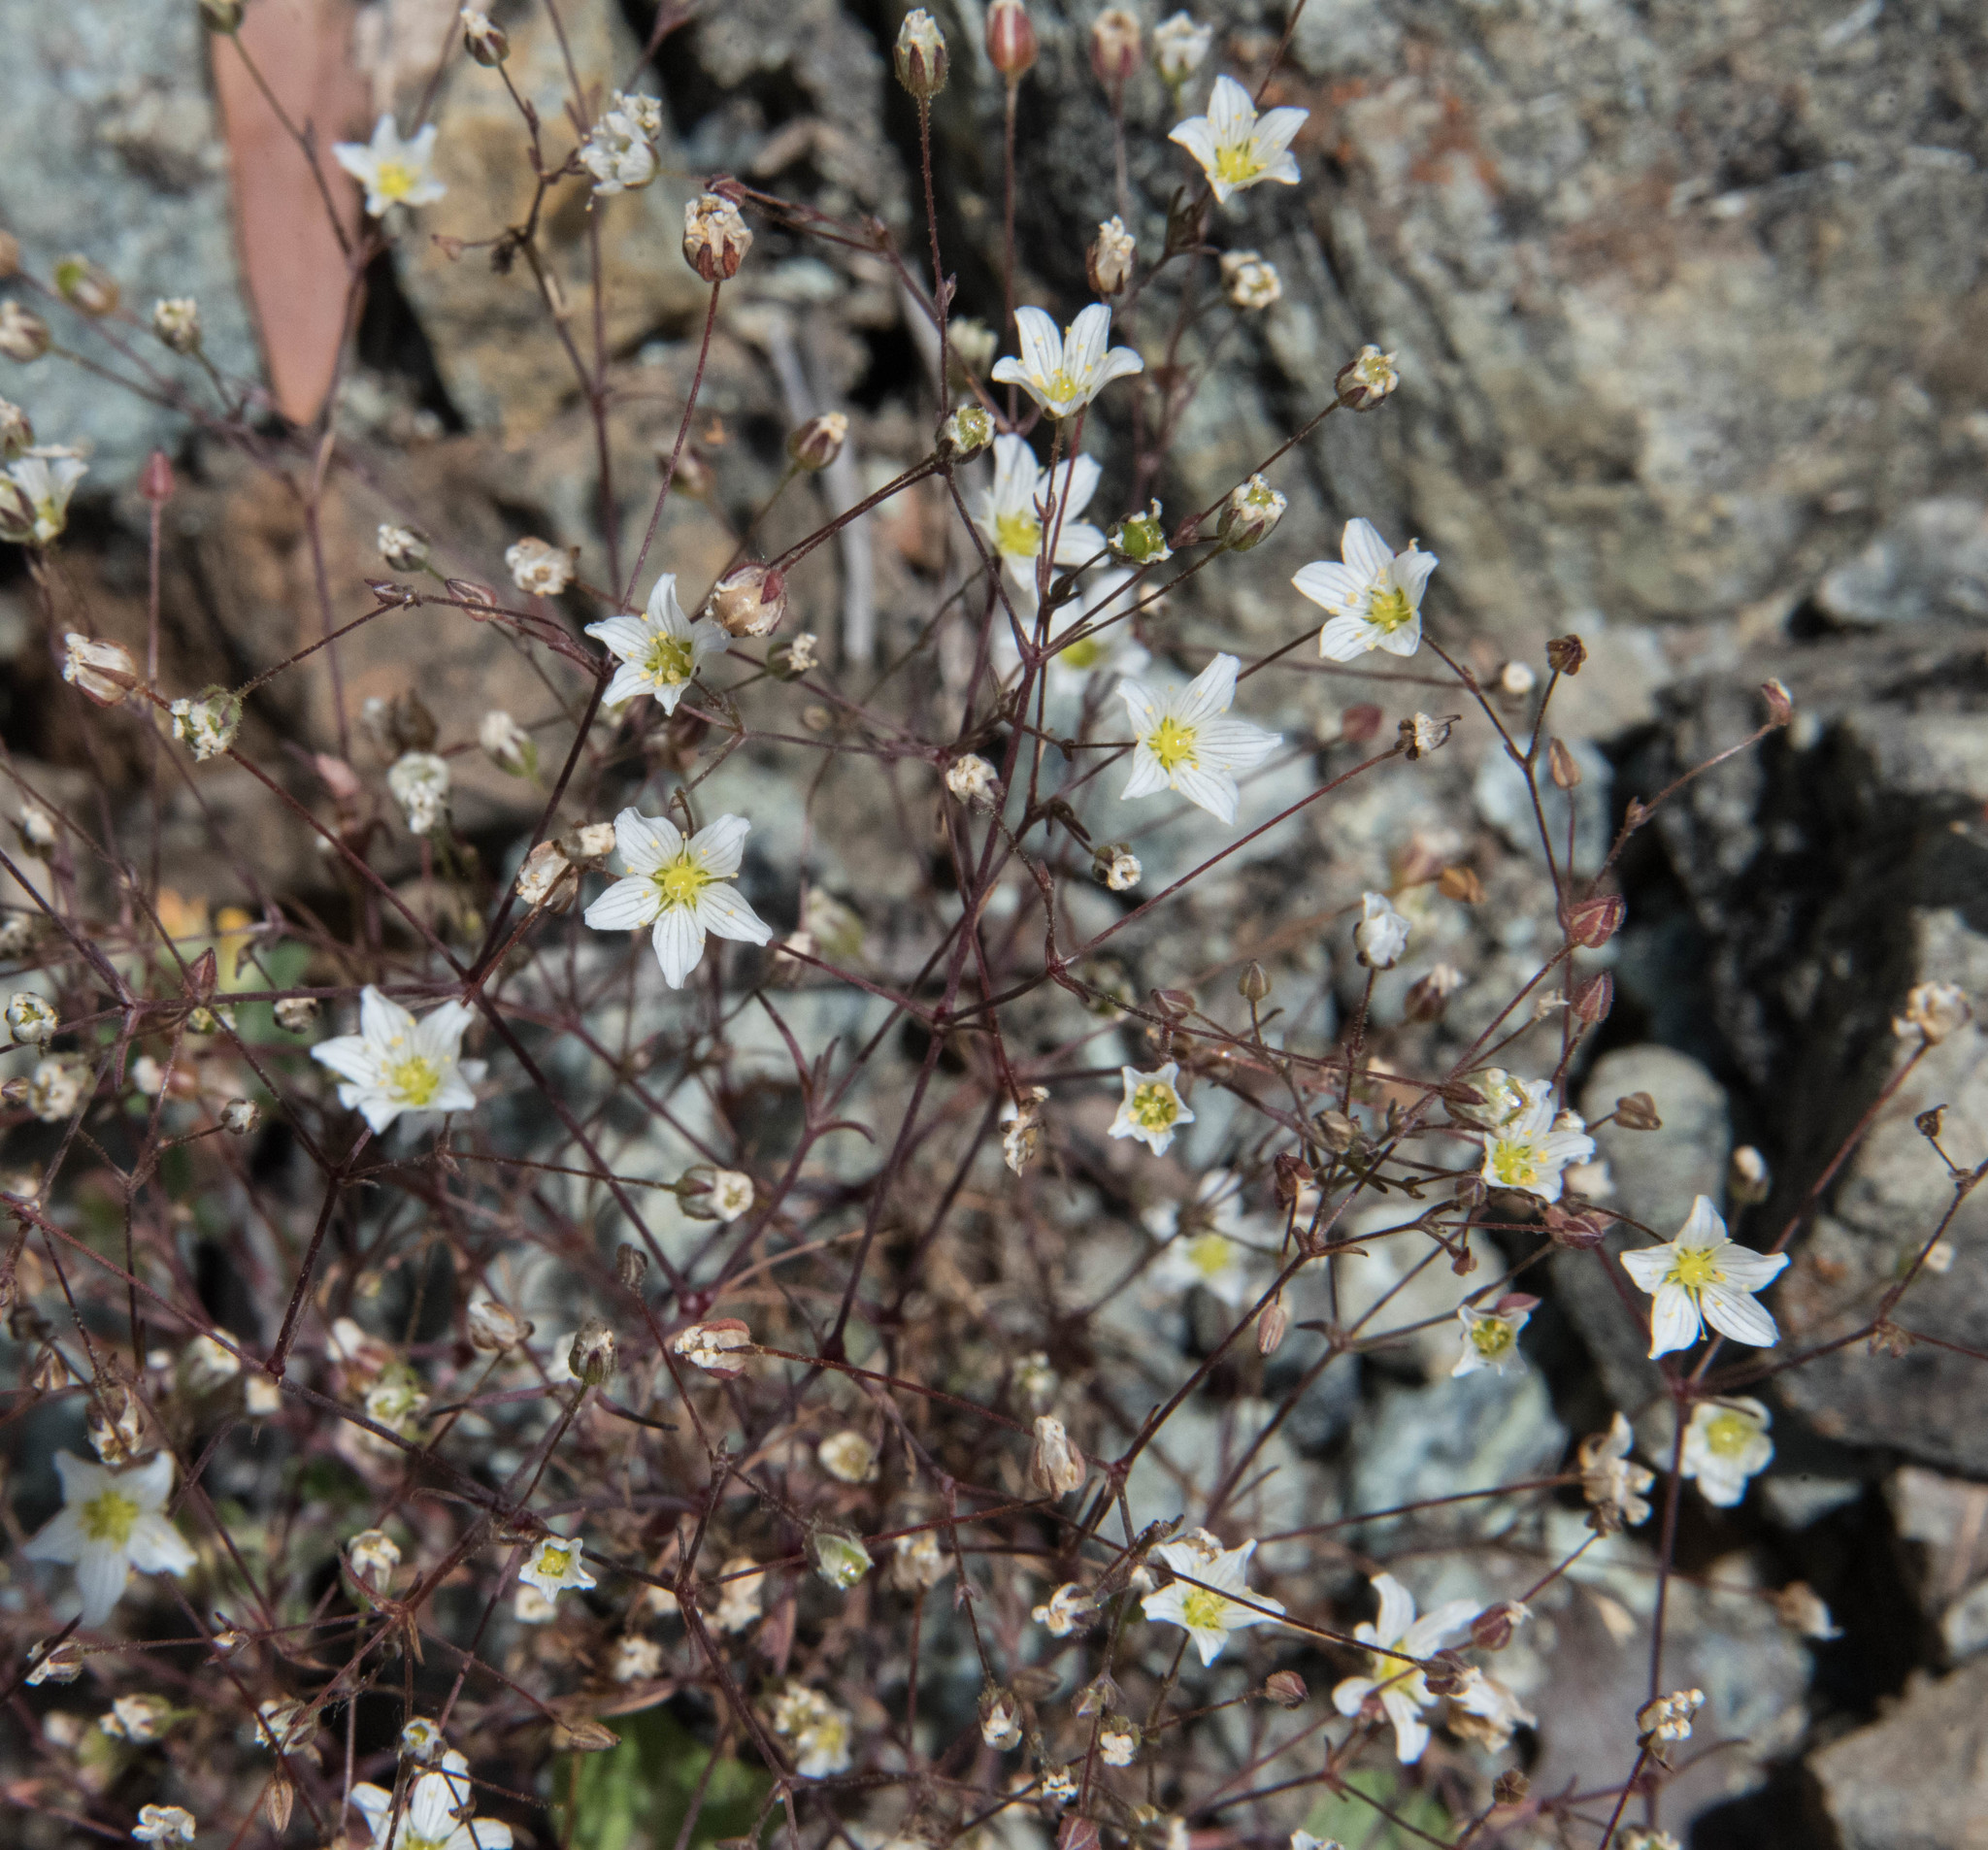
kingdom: Plantae
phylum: Tracheophyta
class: Magnoliopsida
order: Caryophyllales
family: Caryophyllaceae
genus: Sabulina
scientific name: Sabulina douglasii
